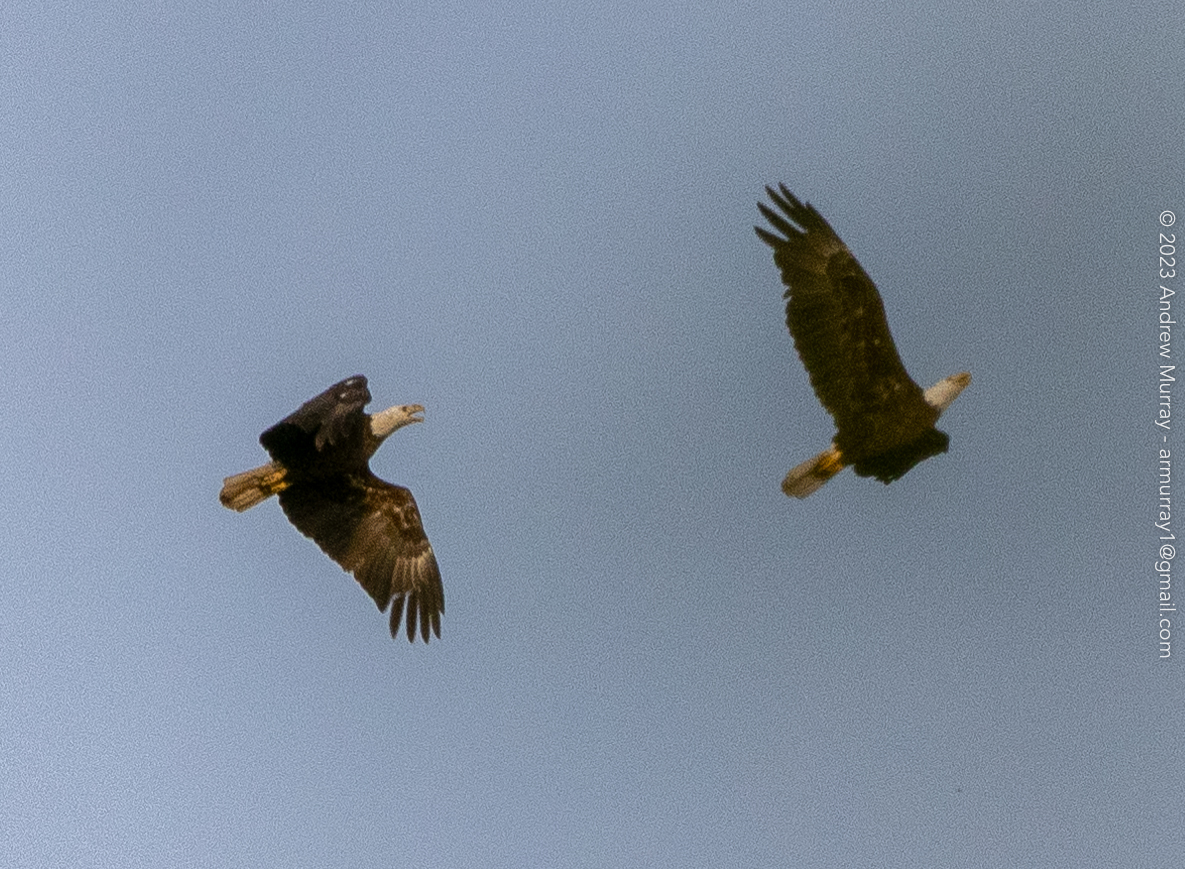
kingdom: Animalia
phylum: Chordata
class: Aves
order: Accipitriformes
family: Accipitridae
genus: Haliaeetus
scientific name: Haliaeetus leucocephalus
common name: Bald eagle
